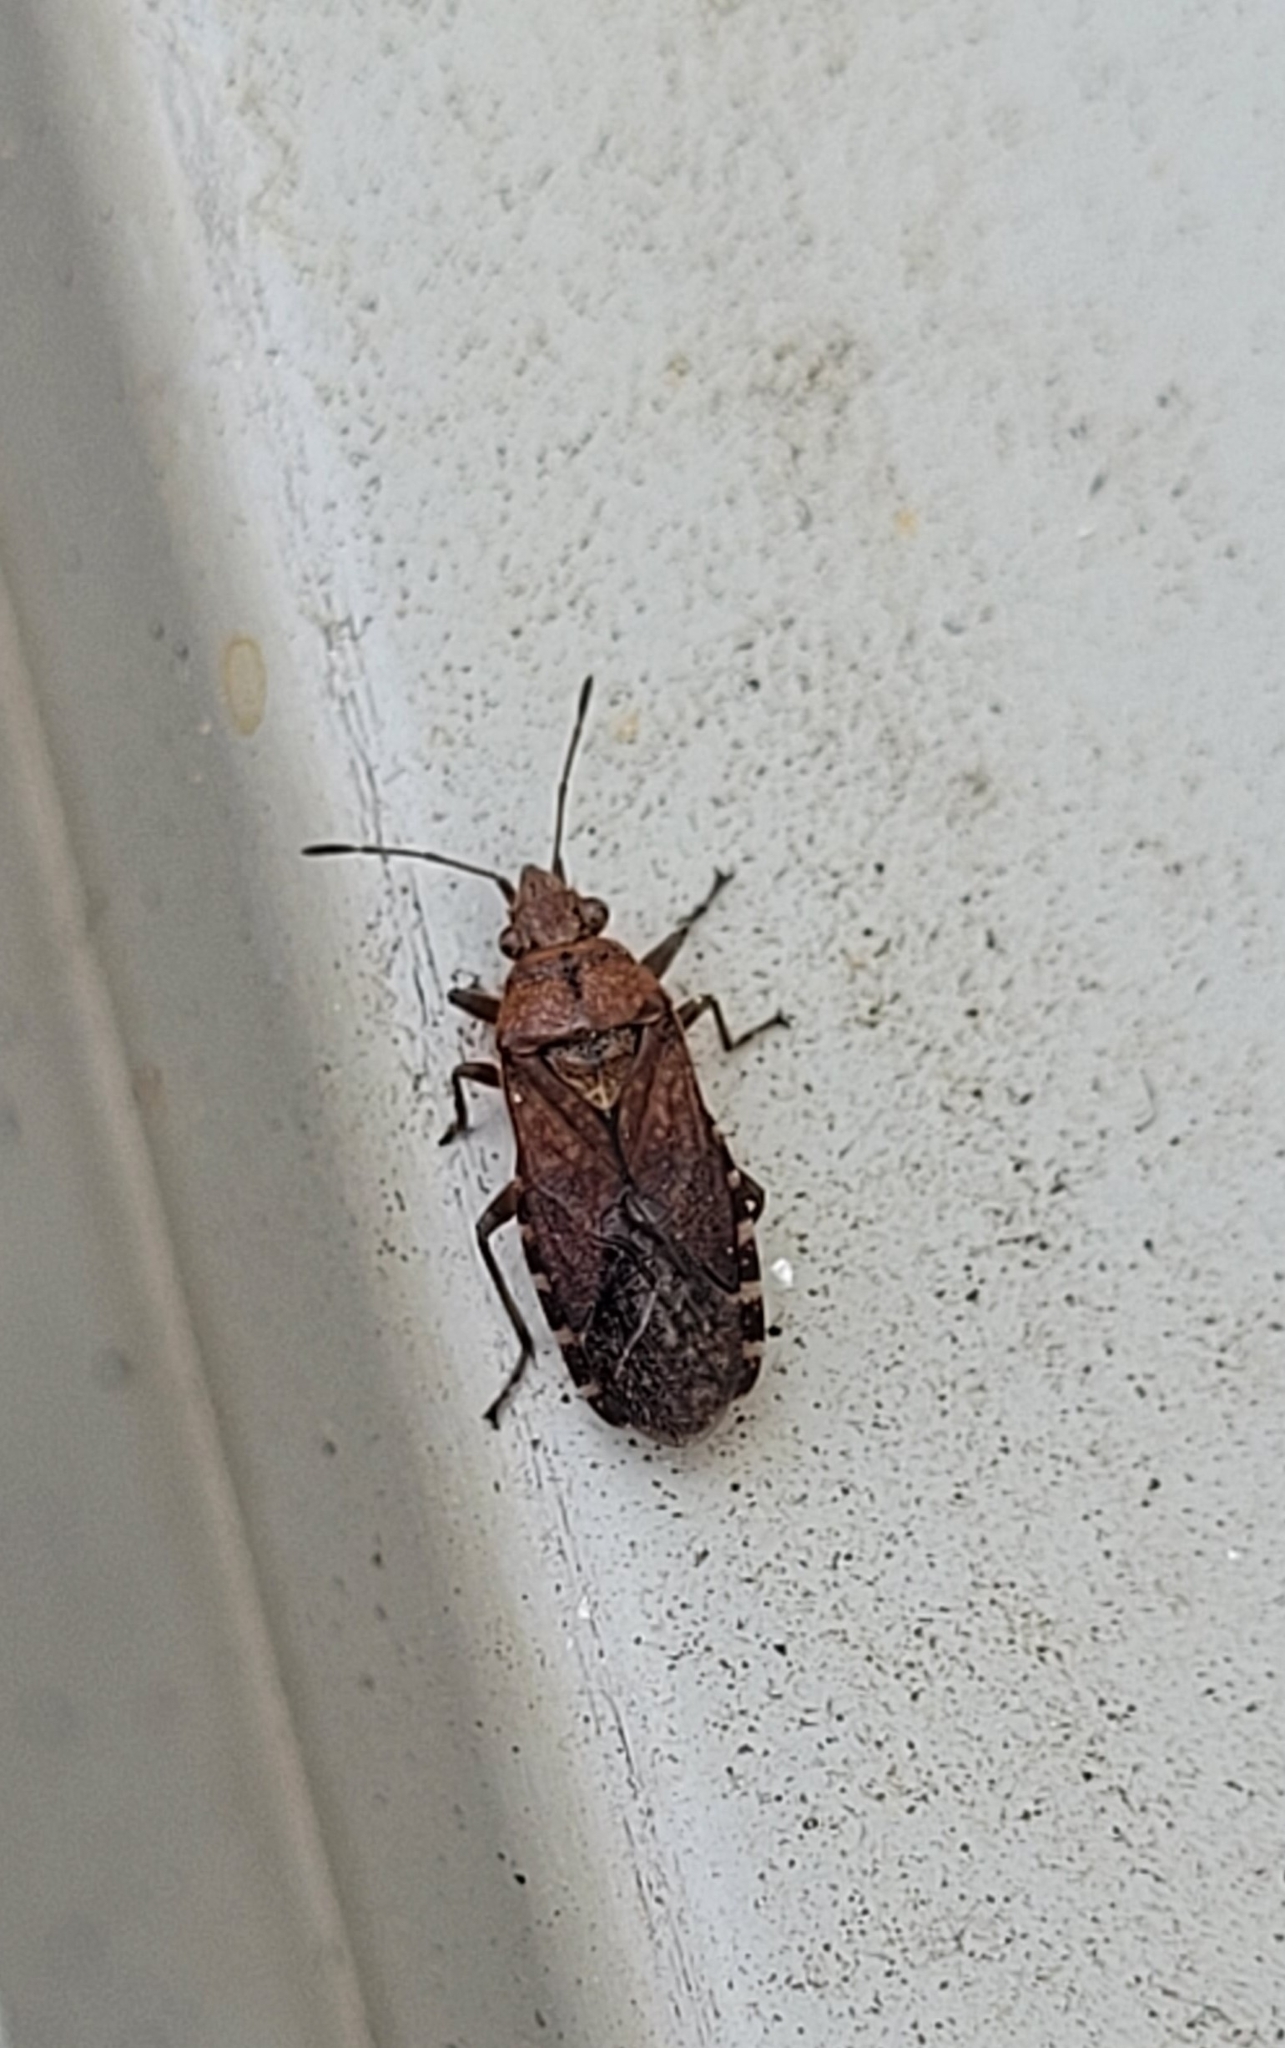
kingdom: Animalia
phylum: Arthropoda
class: Insecta
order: Hemiptera
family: Lygaeidae
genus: Orsillus
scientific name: Orsillus depressus
